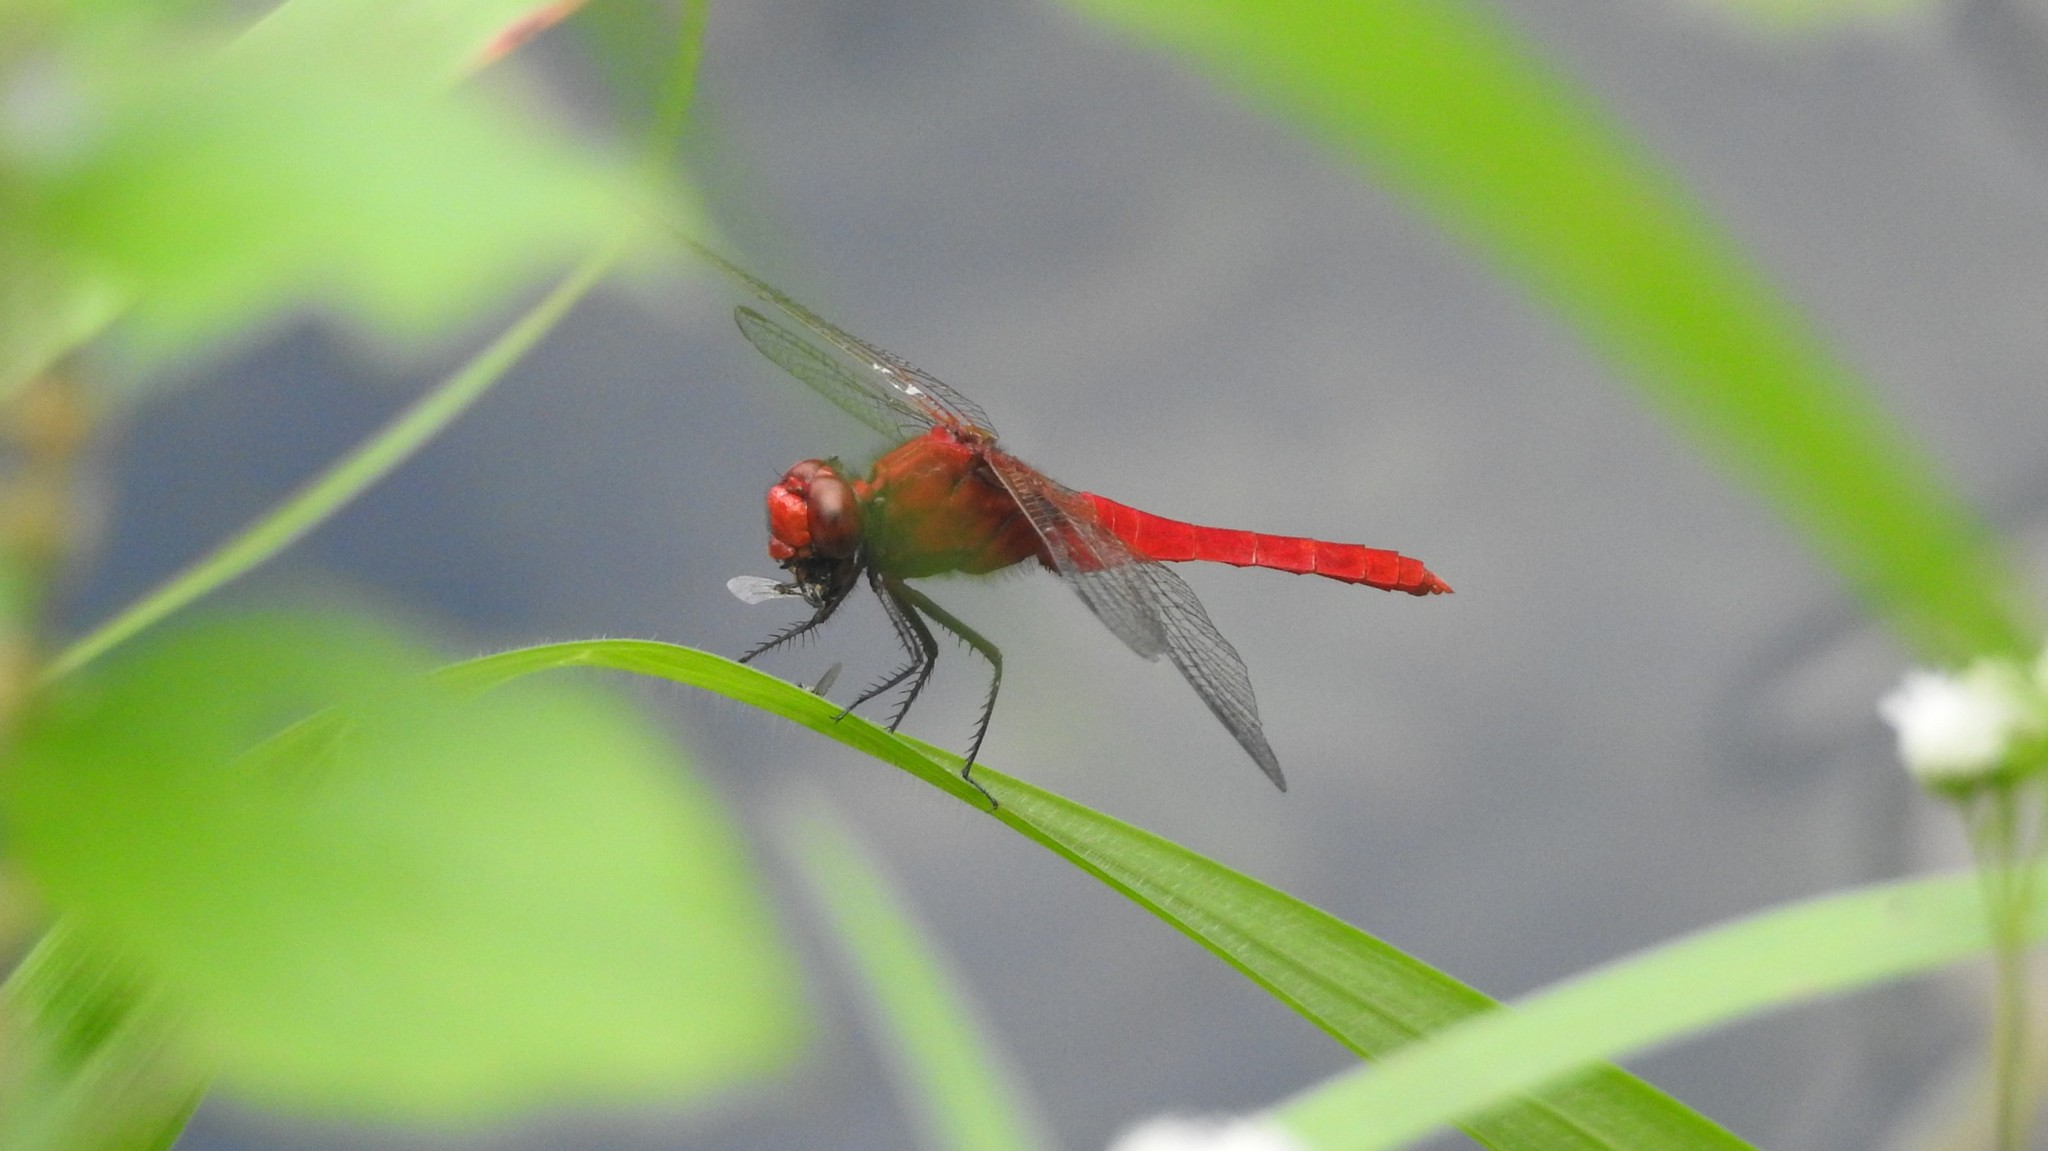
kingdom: Animalia
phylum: Arthropoda
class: Insecta
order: Odonata
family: Libellulidae
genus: Rhodothemis
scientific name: Rhodothemis rufa
